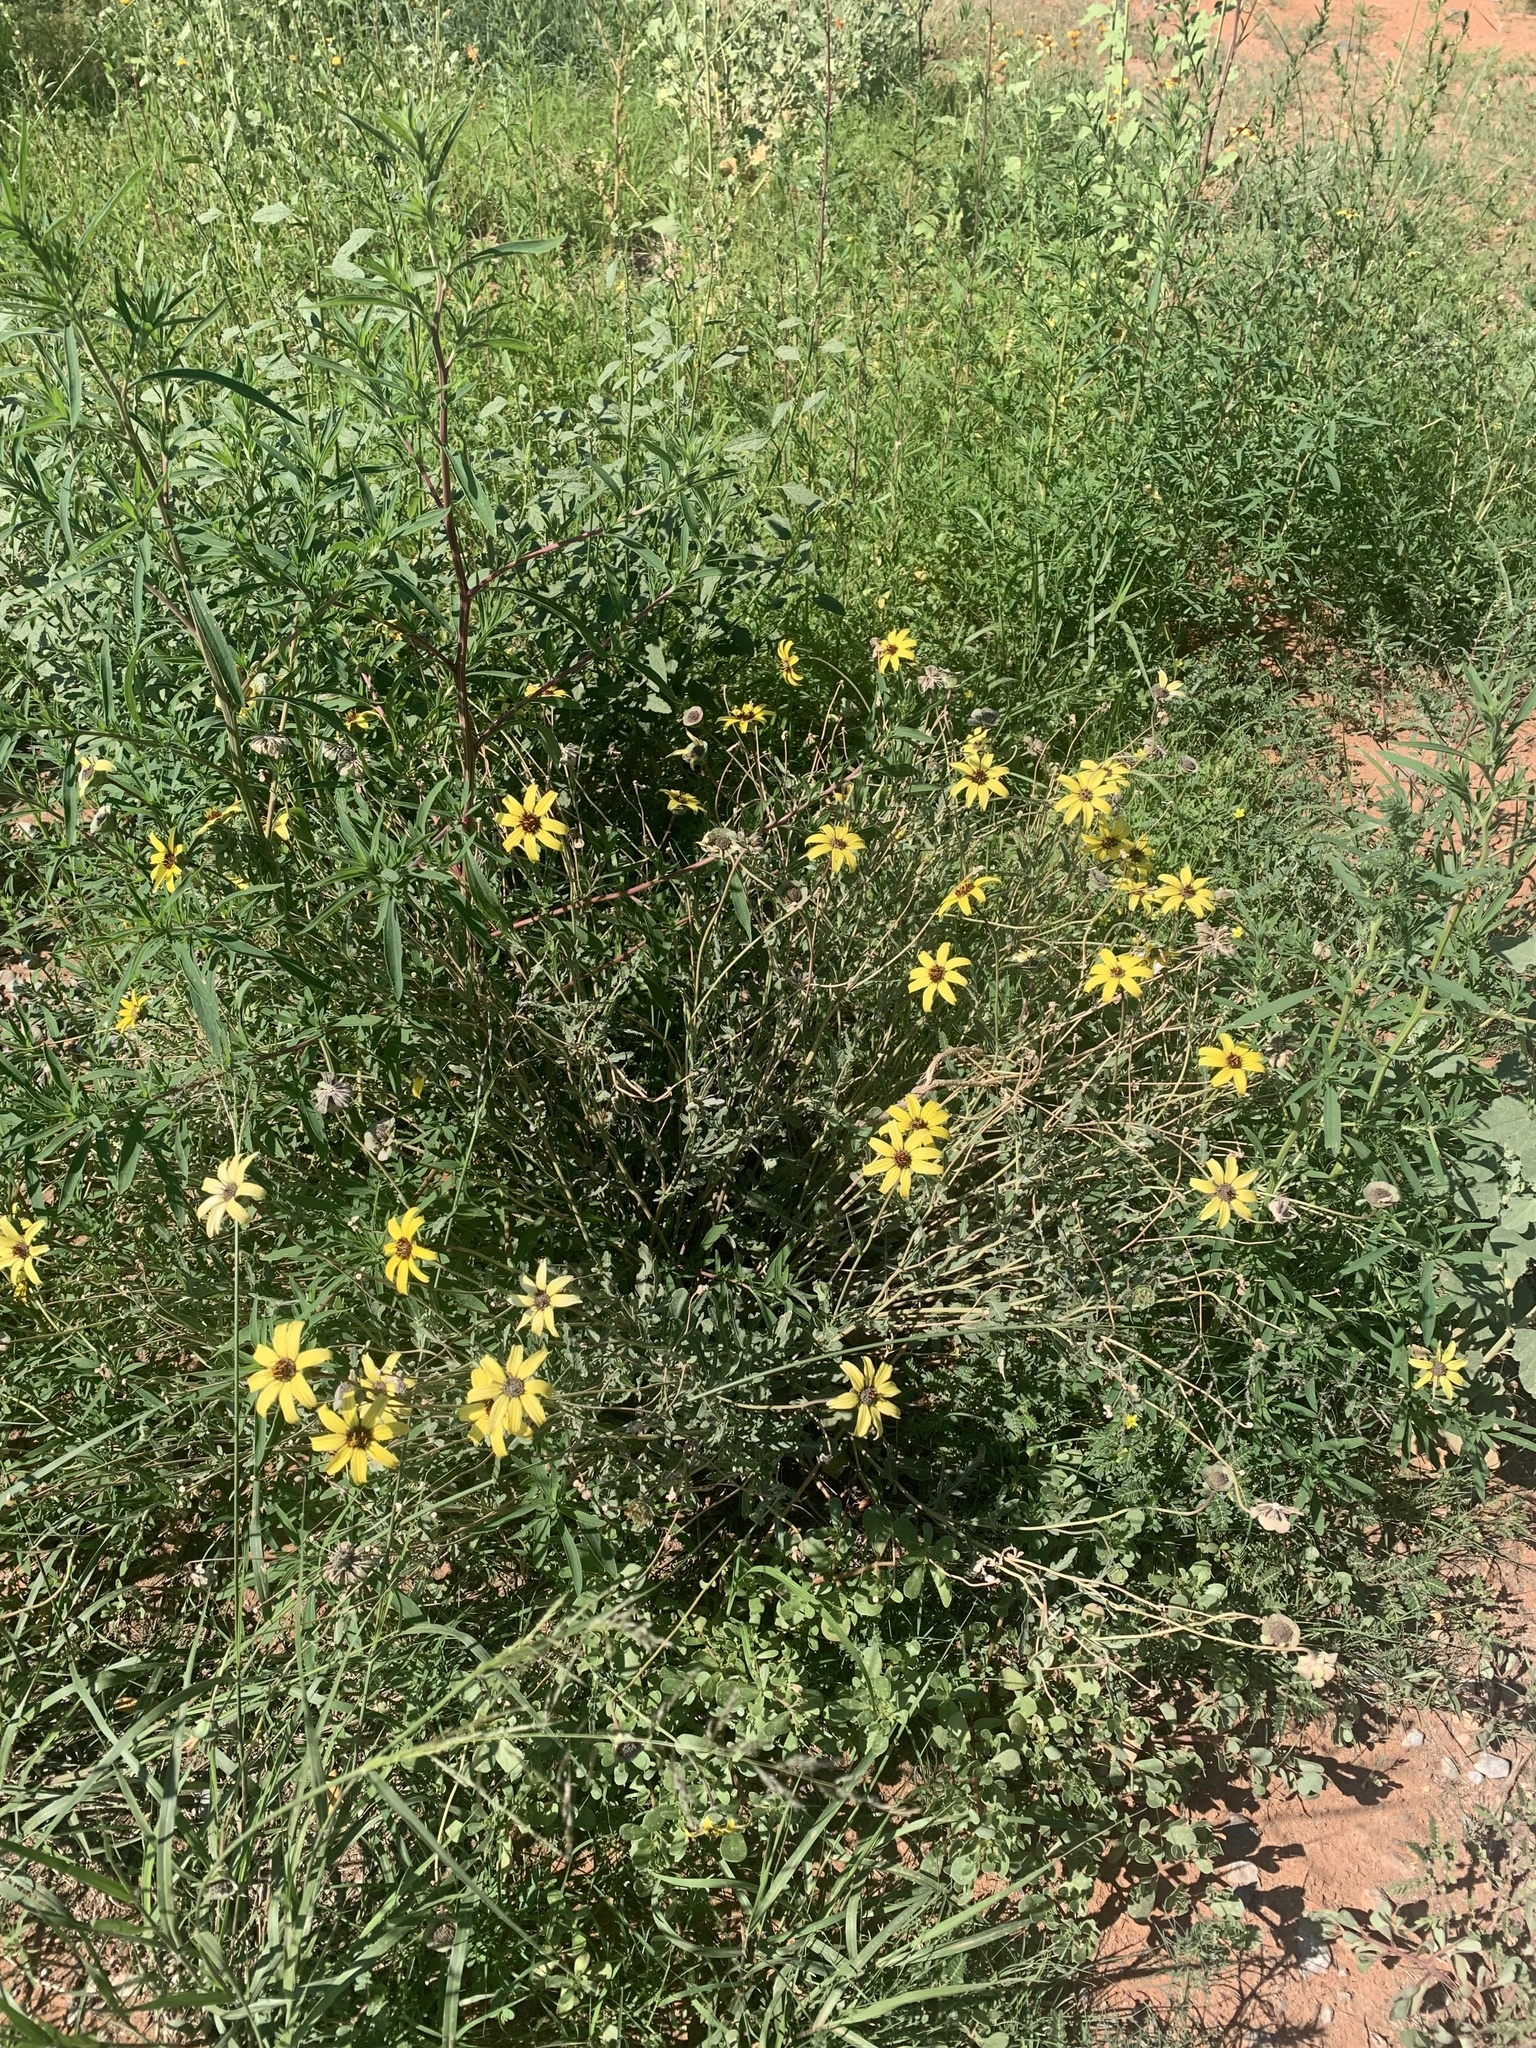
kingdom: Plantae
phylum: Tracheophyta
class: Magnoliopsida
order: Asterales
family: Asteraceae
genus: Berlandiera
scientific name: Berlandiera lyrata
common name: Chocolate-flower
